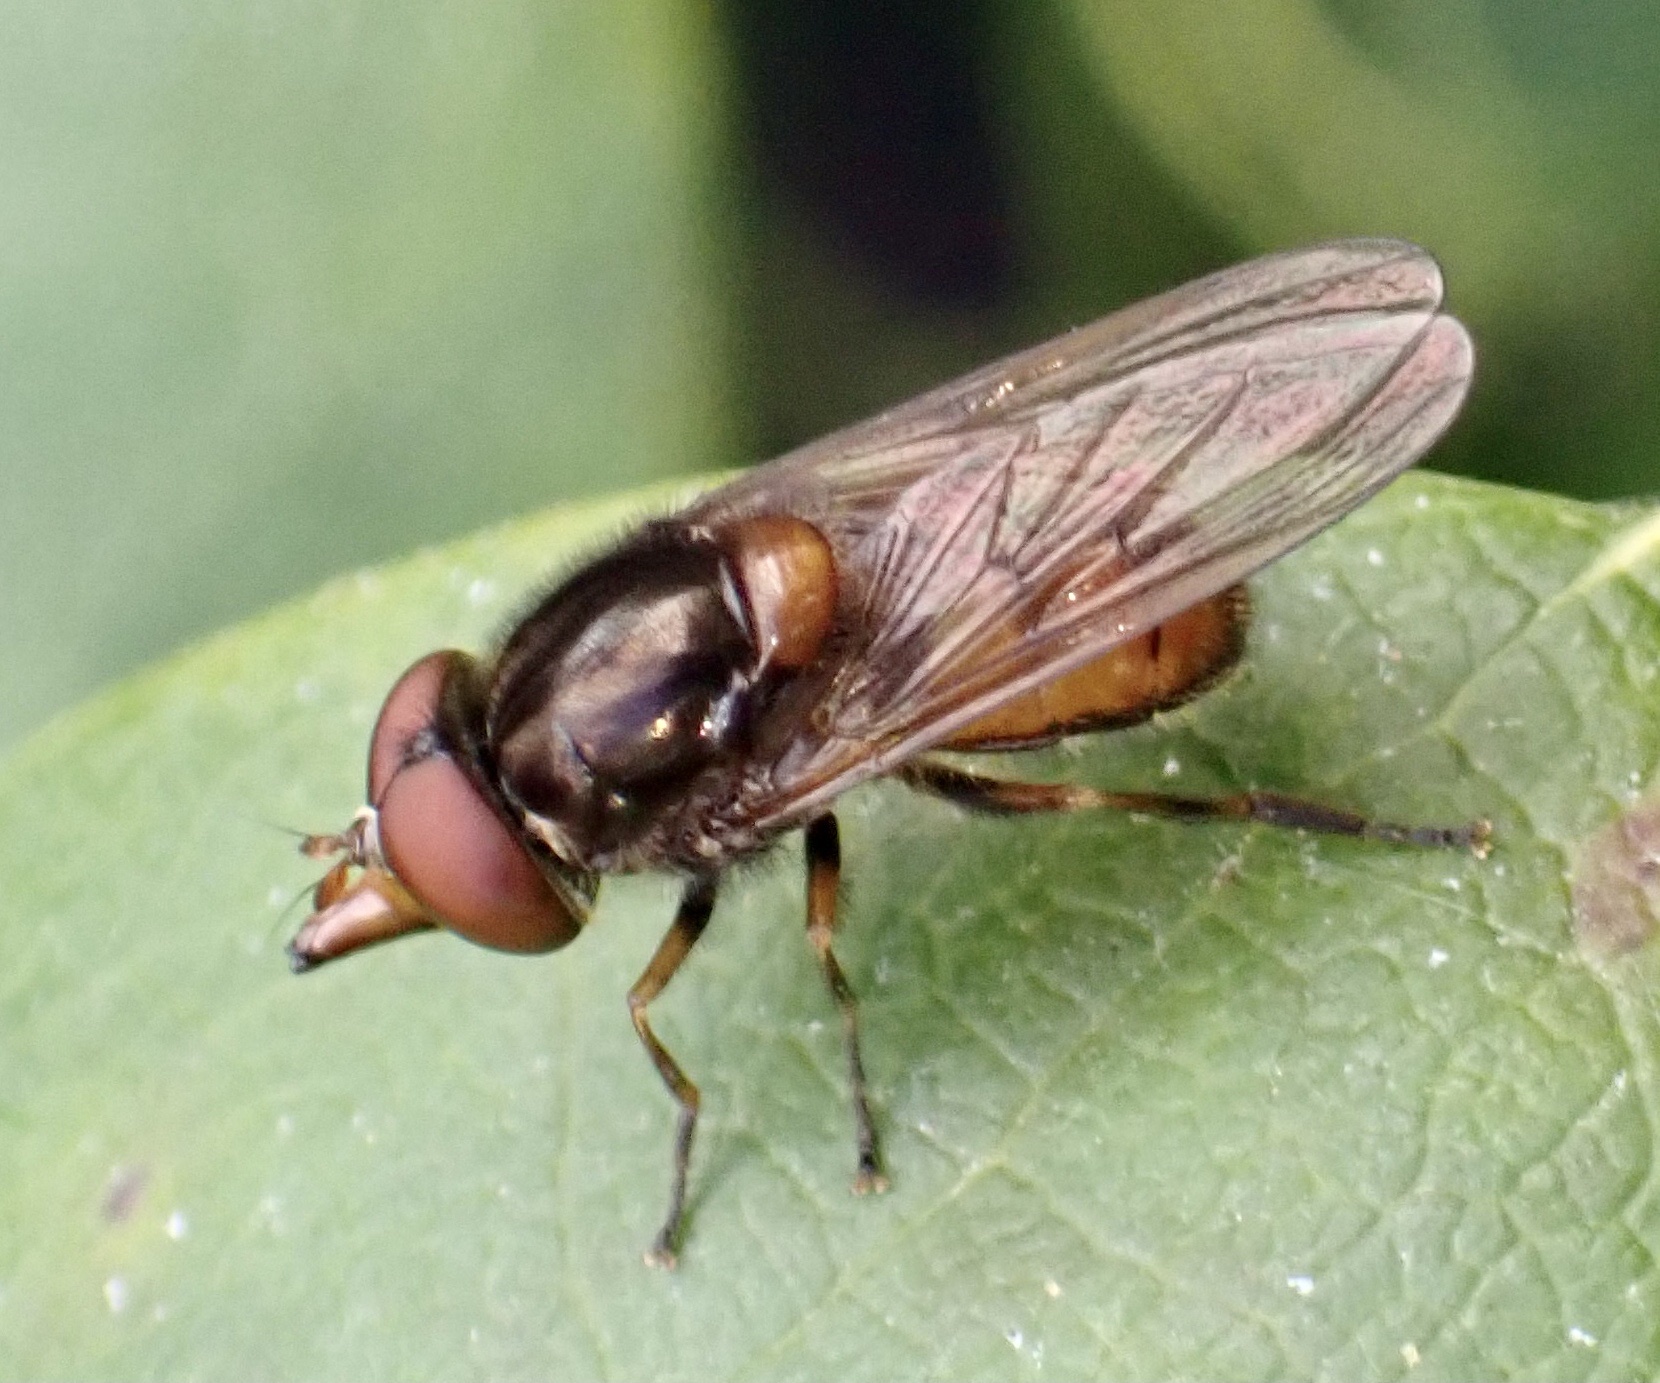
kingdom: Animalia
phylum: Arthropoda
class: Insecta
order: Diptera
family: Syrphidae
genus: Rhingia
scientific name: Rhingia campestris
